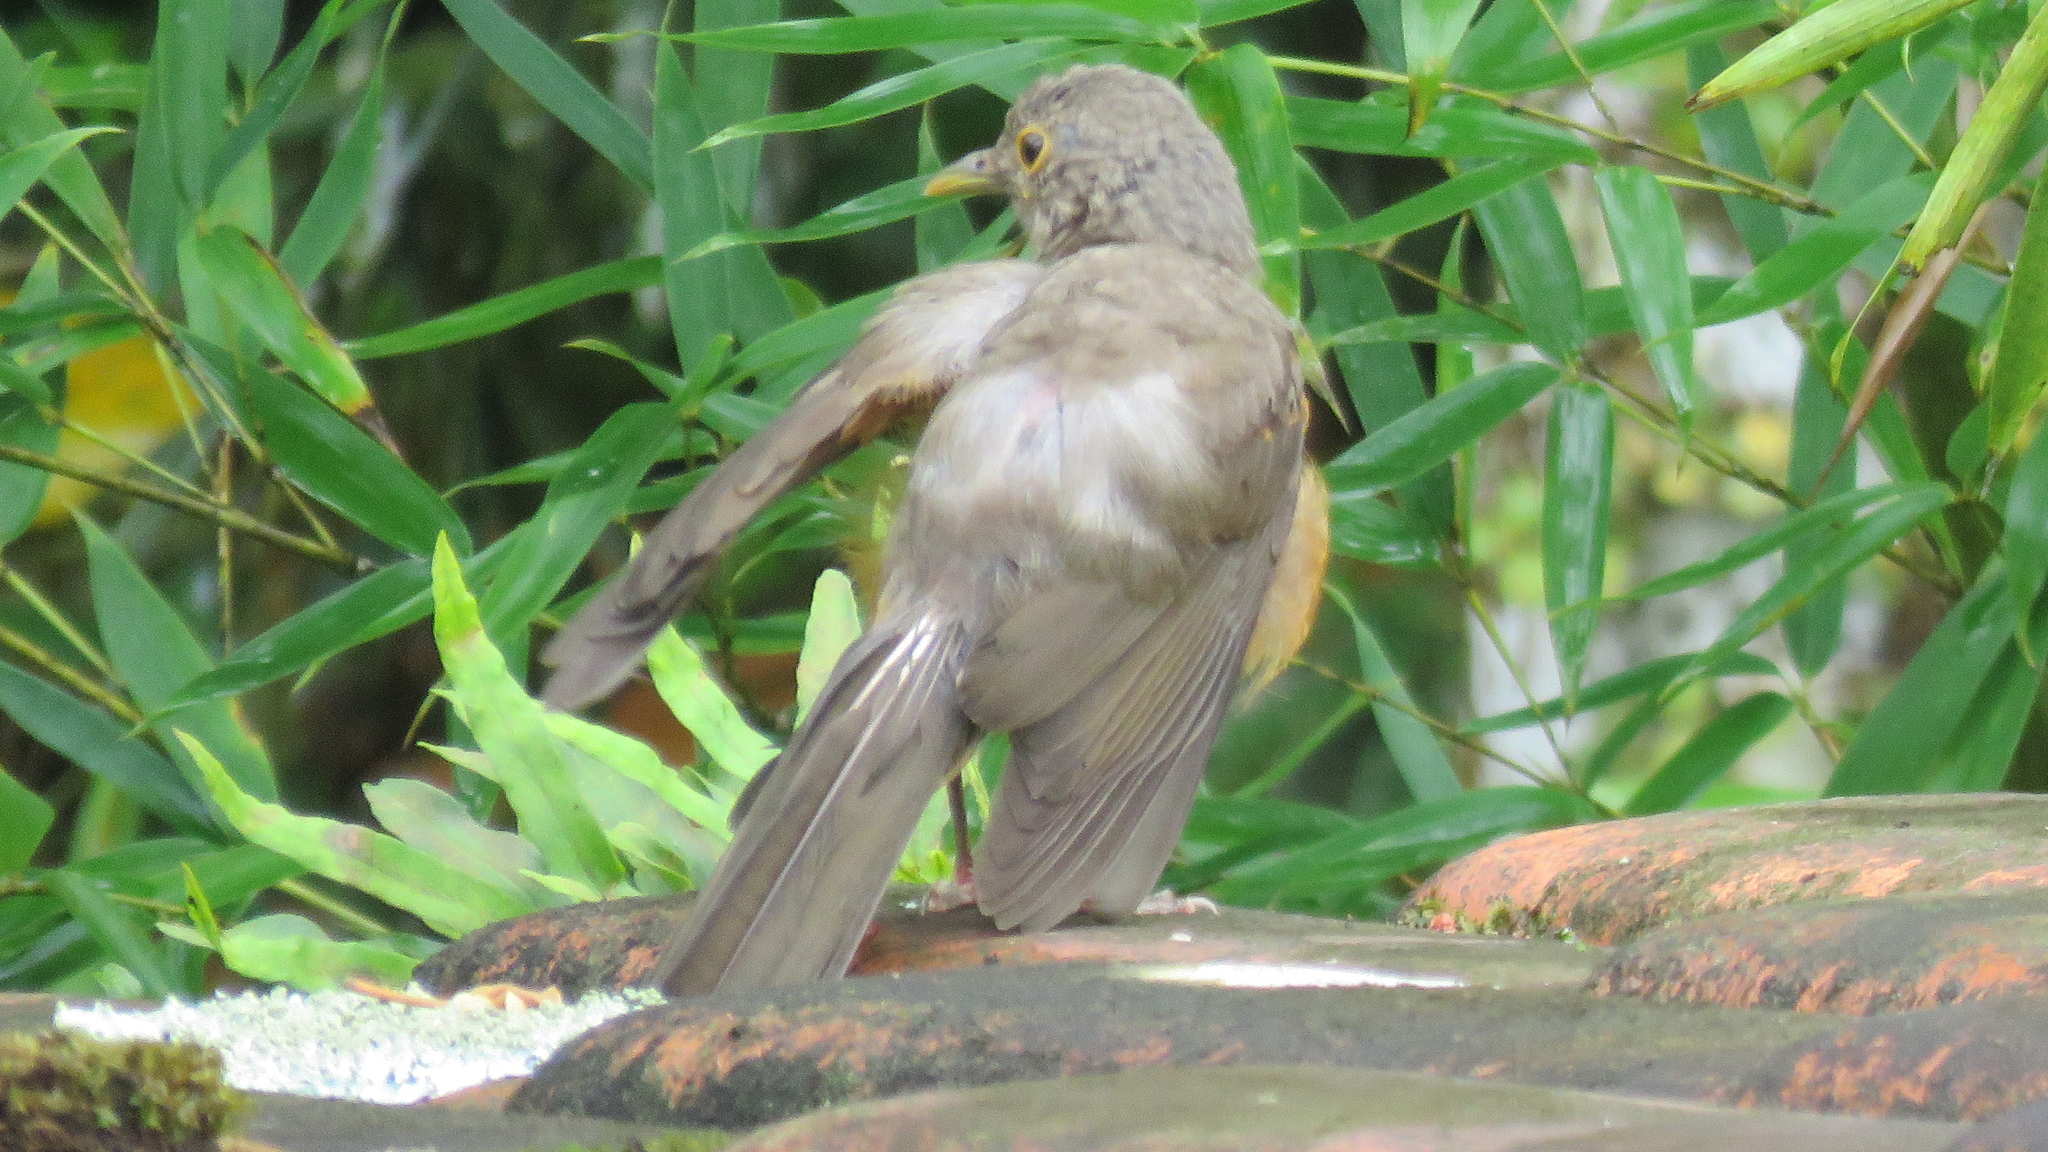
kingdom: Animalia
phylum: Chordata
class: Aves
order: Passeriformes
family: Turdidae
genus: Turdus
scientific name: Turdus rufiventris
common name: Rufous-bellied thrush
